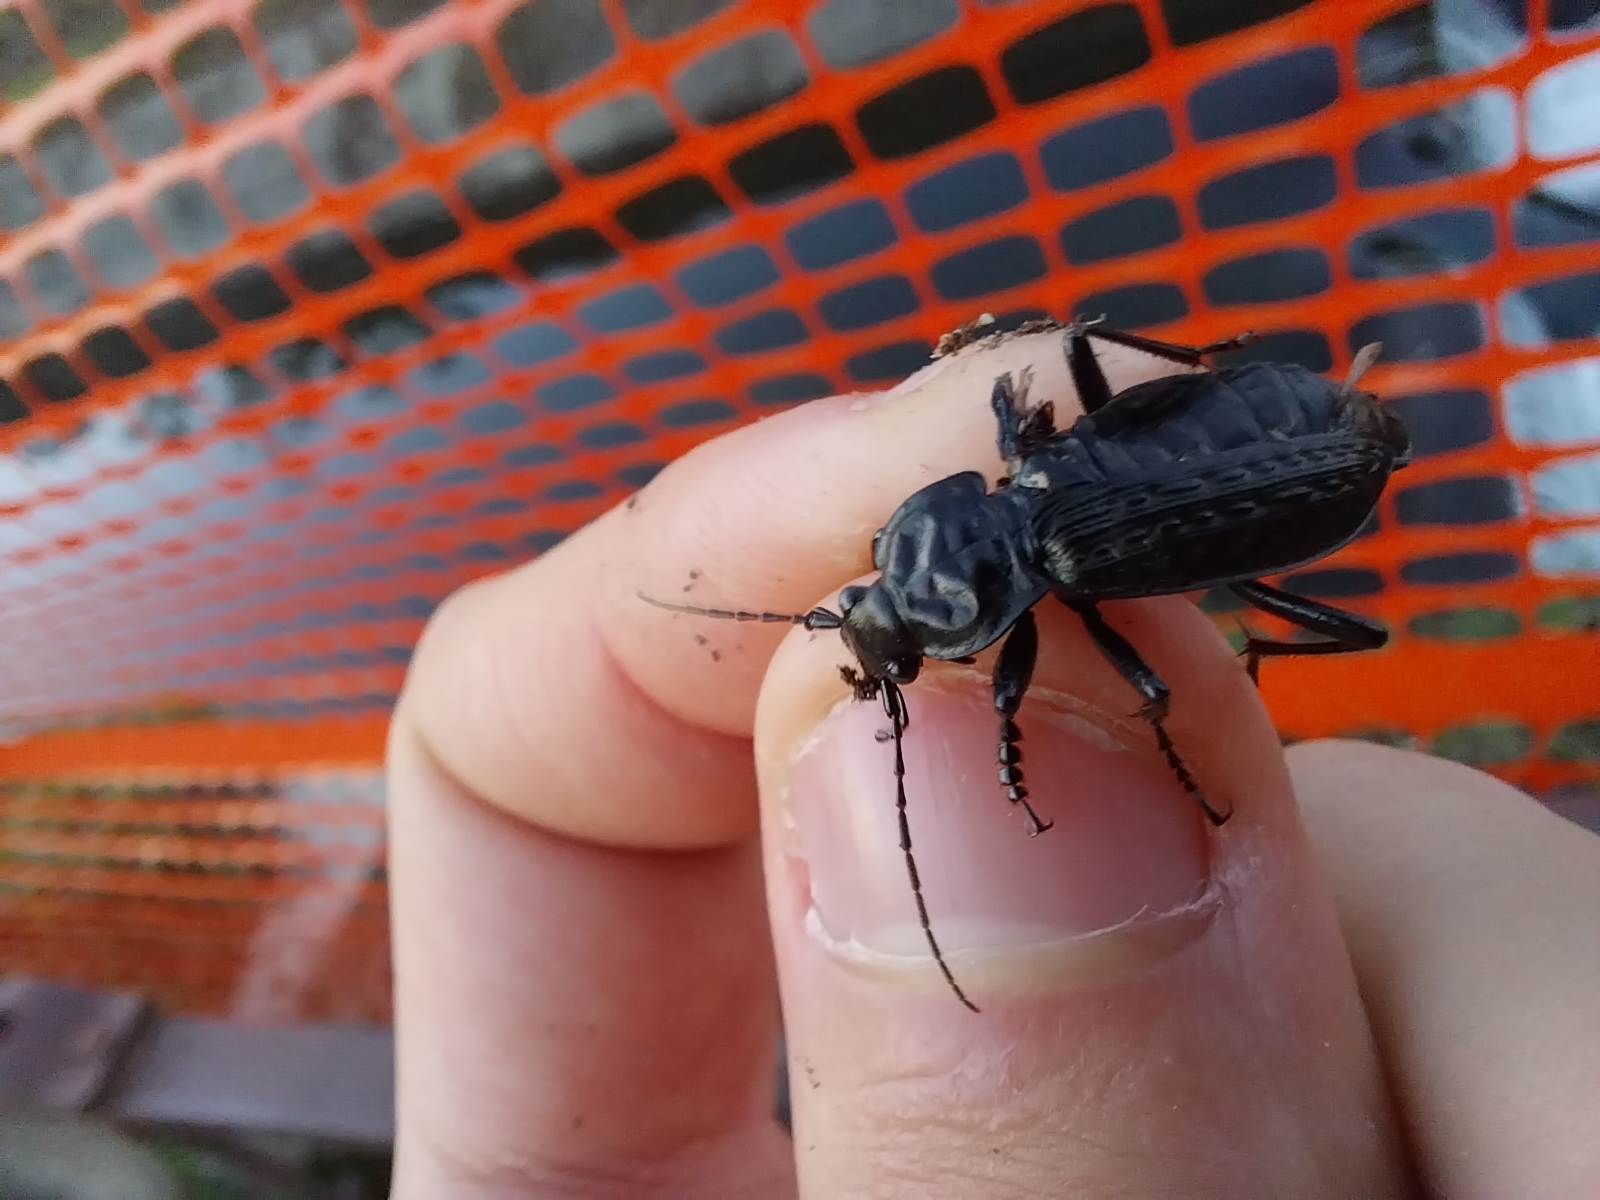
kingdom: Animalia
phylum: Arthropoda
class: Insecta
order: Coleoptera
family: Carabidae
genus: Carabus
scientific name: Carabus granulatus
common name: Granulate ground beetle
